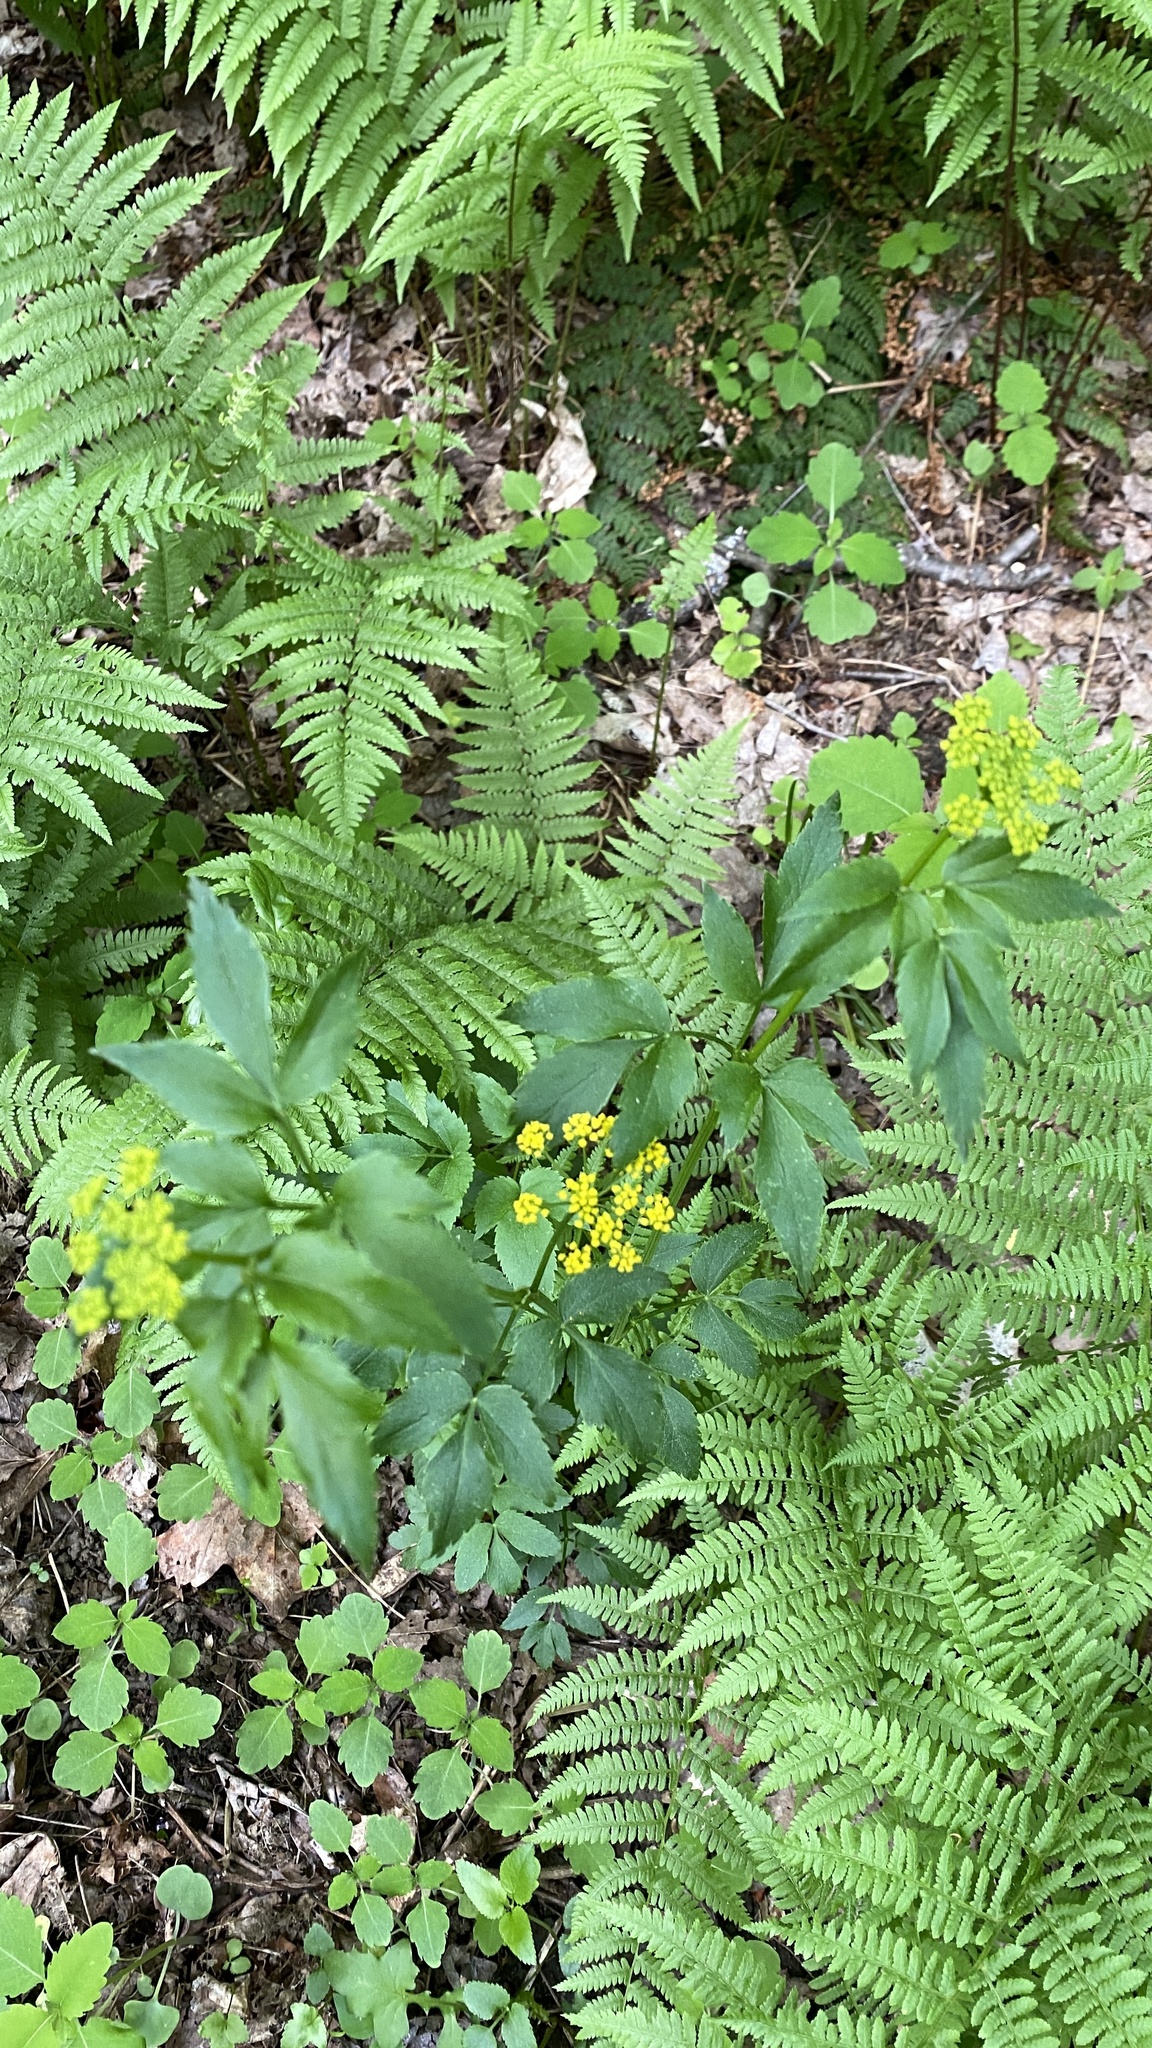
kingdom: Plantae
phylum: Tracheophyta
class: Magnoliopsida
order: Apiales
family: Apiaceae
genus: Zizia
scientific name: Zizia aurea
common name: Golden alexanders
